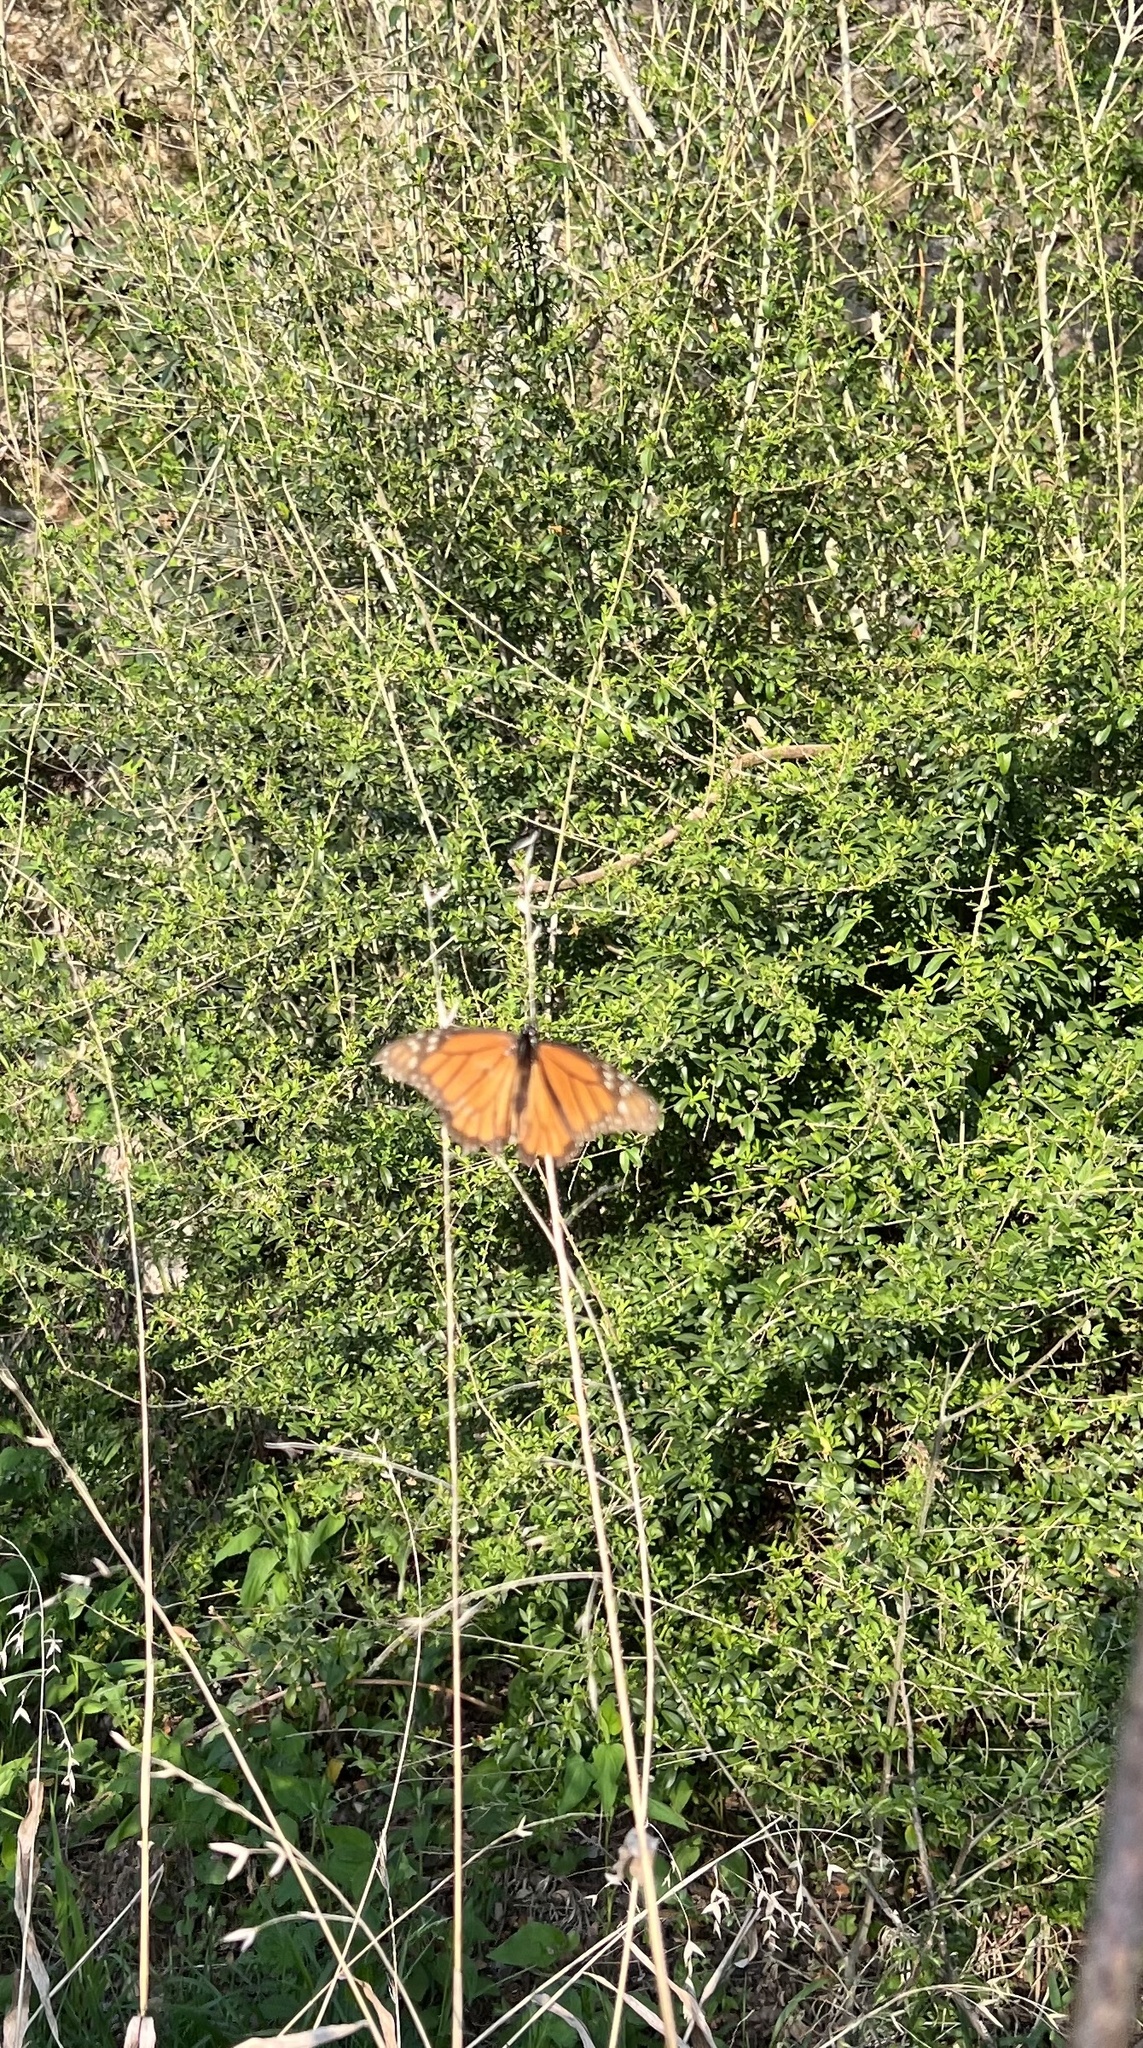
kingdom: Animalia
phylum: Arthropoda
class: Insecta
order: Lepidoptera
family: Nymphalidae
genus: Danaus
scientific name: Danaus plexippus
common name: Monarch
